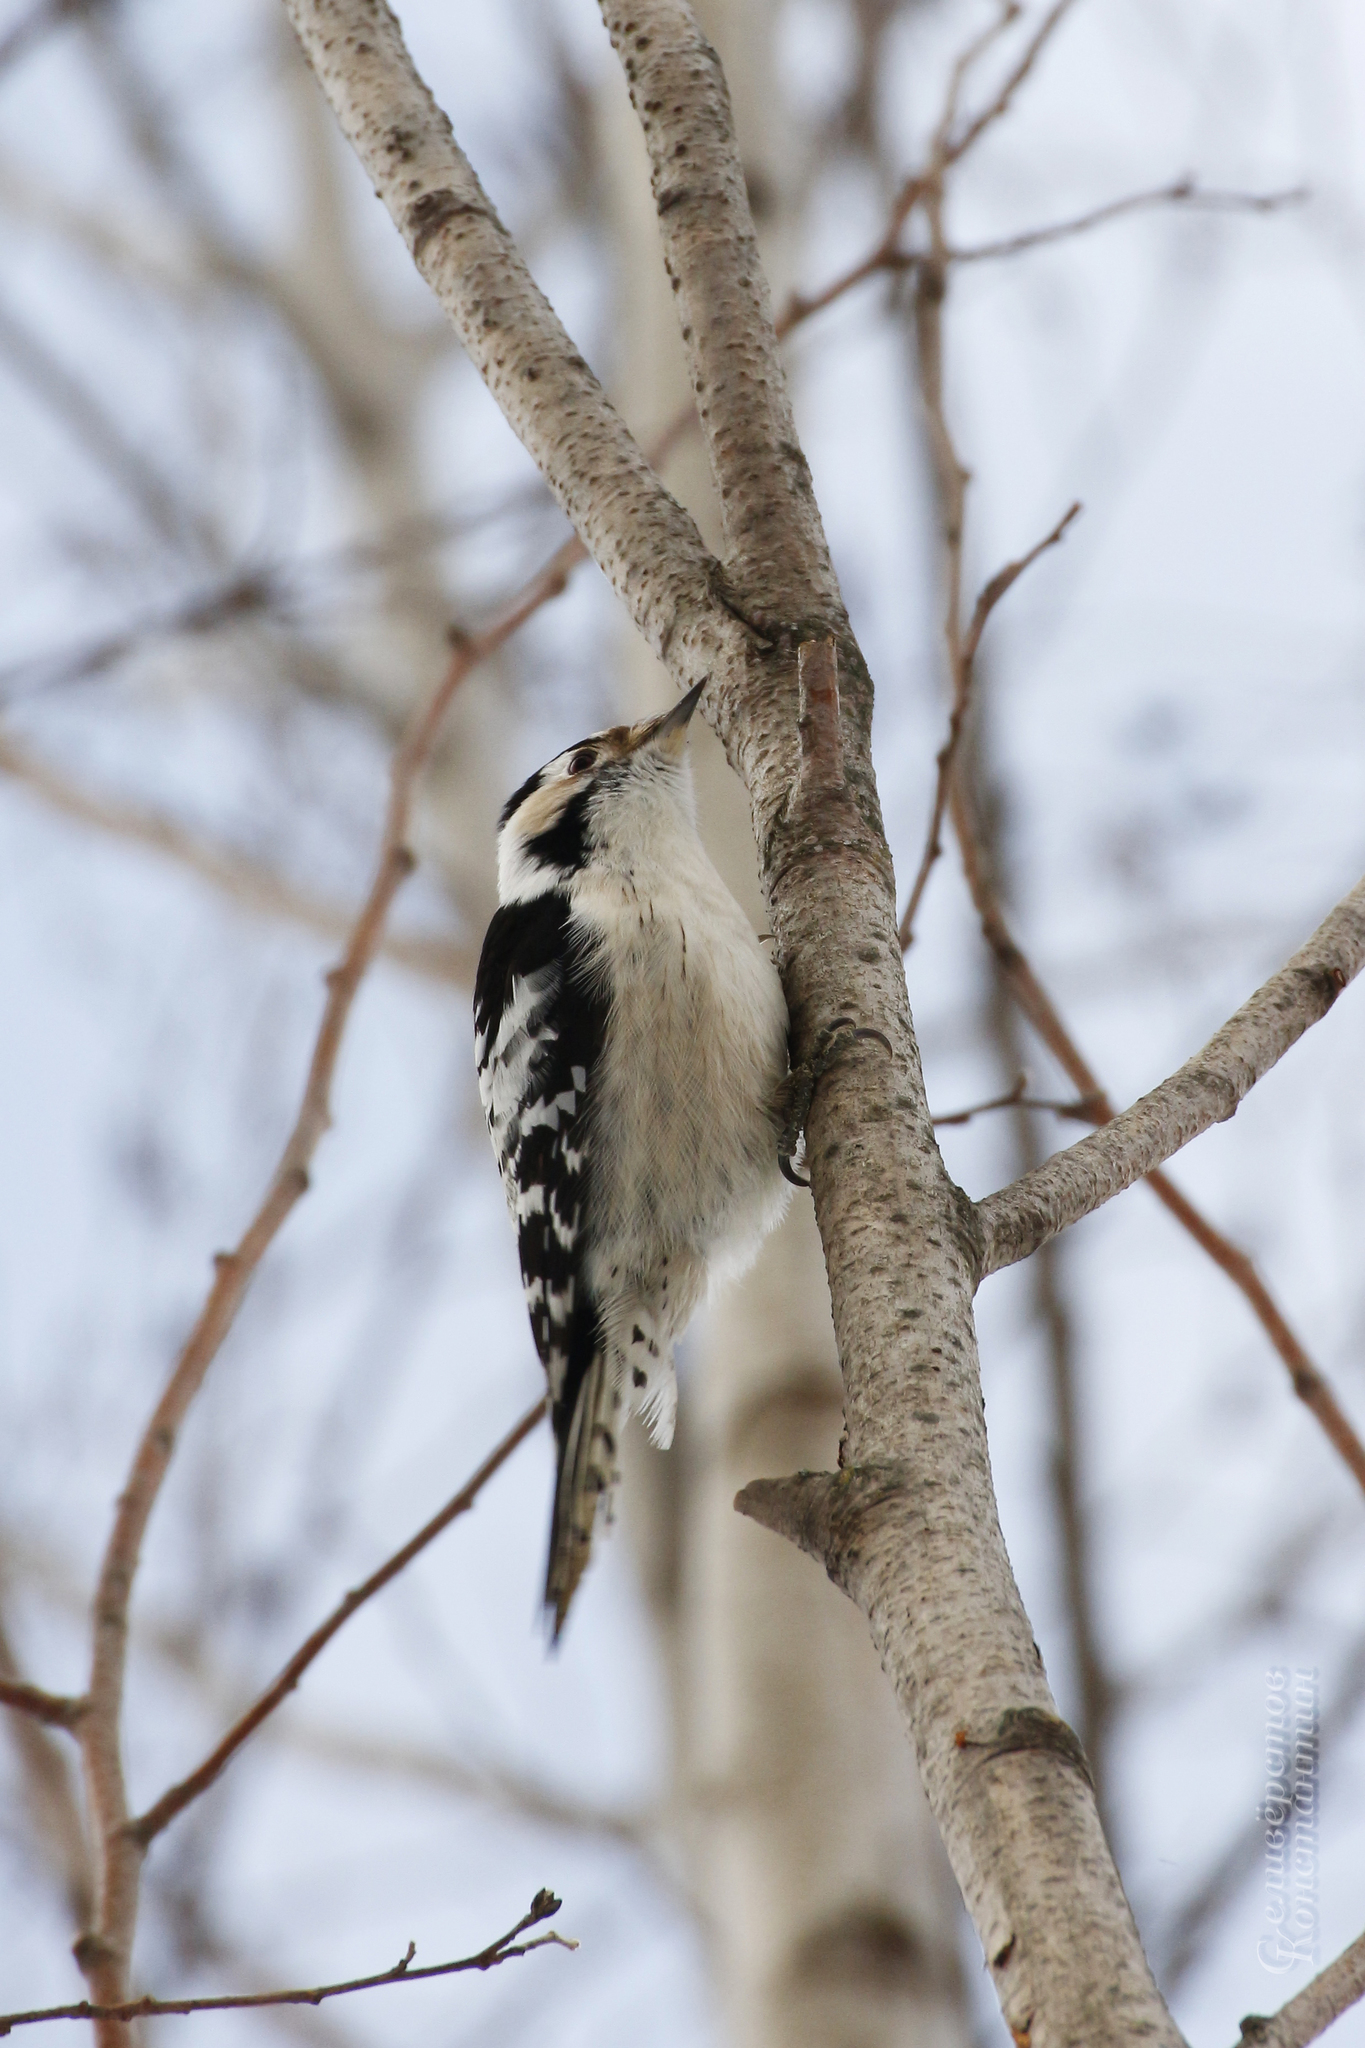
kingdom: Animalia
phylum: Chordata
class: Aves
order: Piciformes
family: Picidae
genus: Dryobates
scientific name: Dryobates minor
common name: Lesser spotted woodpecker
